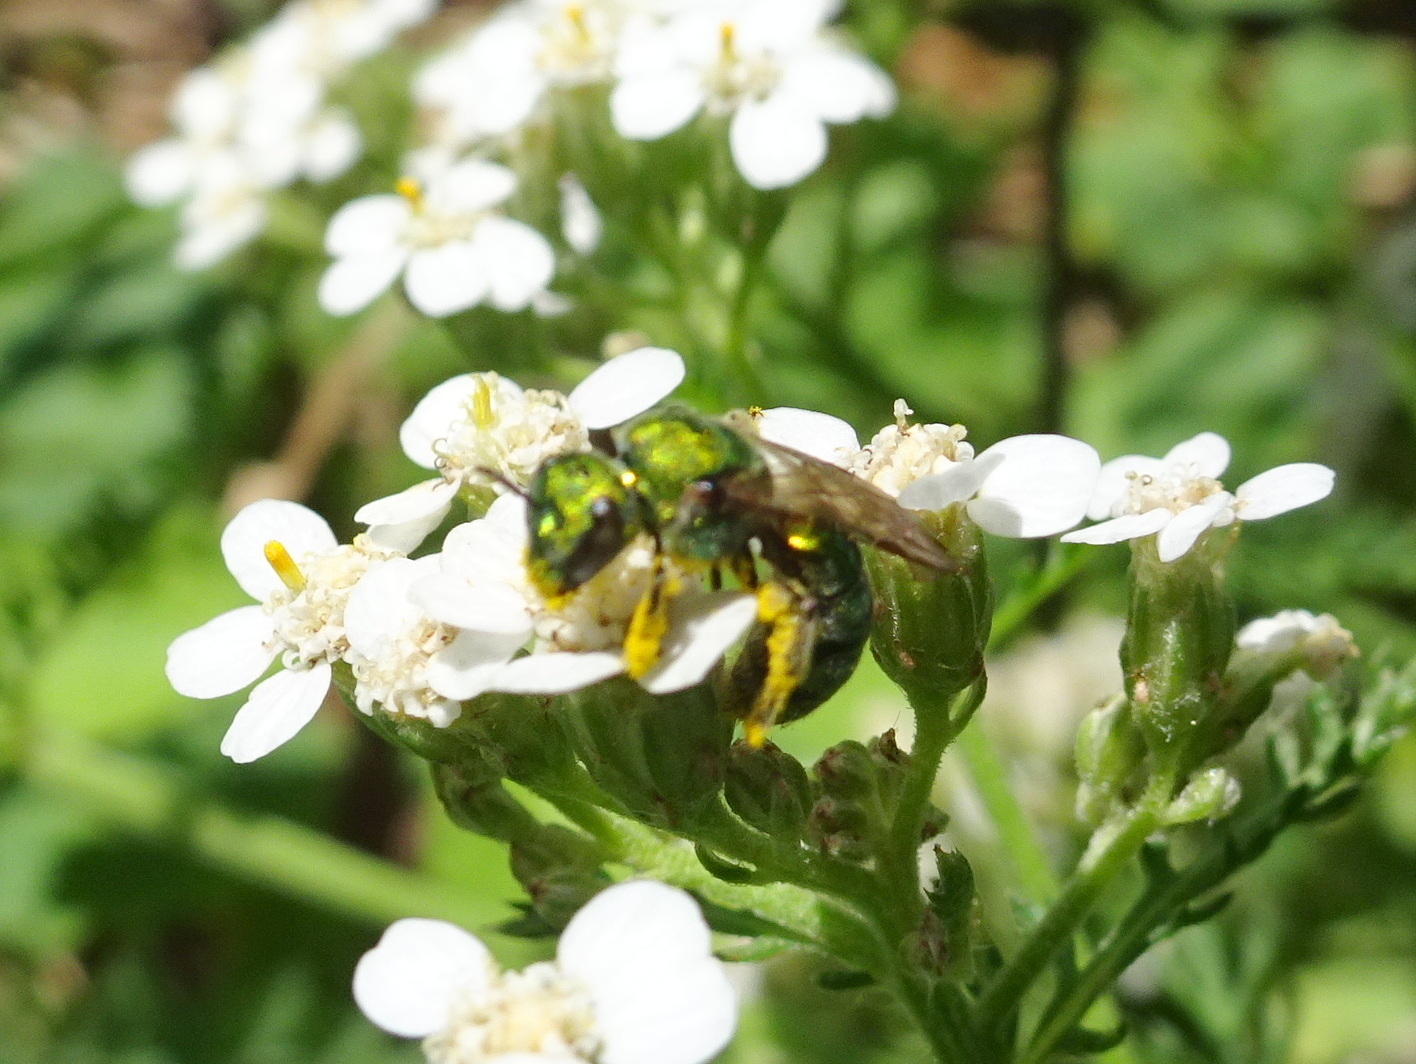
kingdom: Animalia
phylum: Arthropoda
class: Insecta
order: Hymenoptera
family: Halictidae
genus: Augochlora
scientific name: Augochlora pura
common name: Pure green sweat bee
